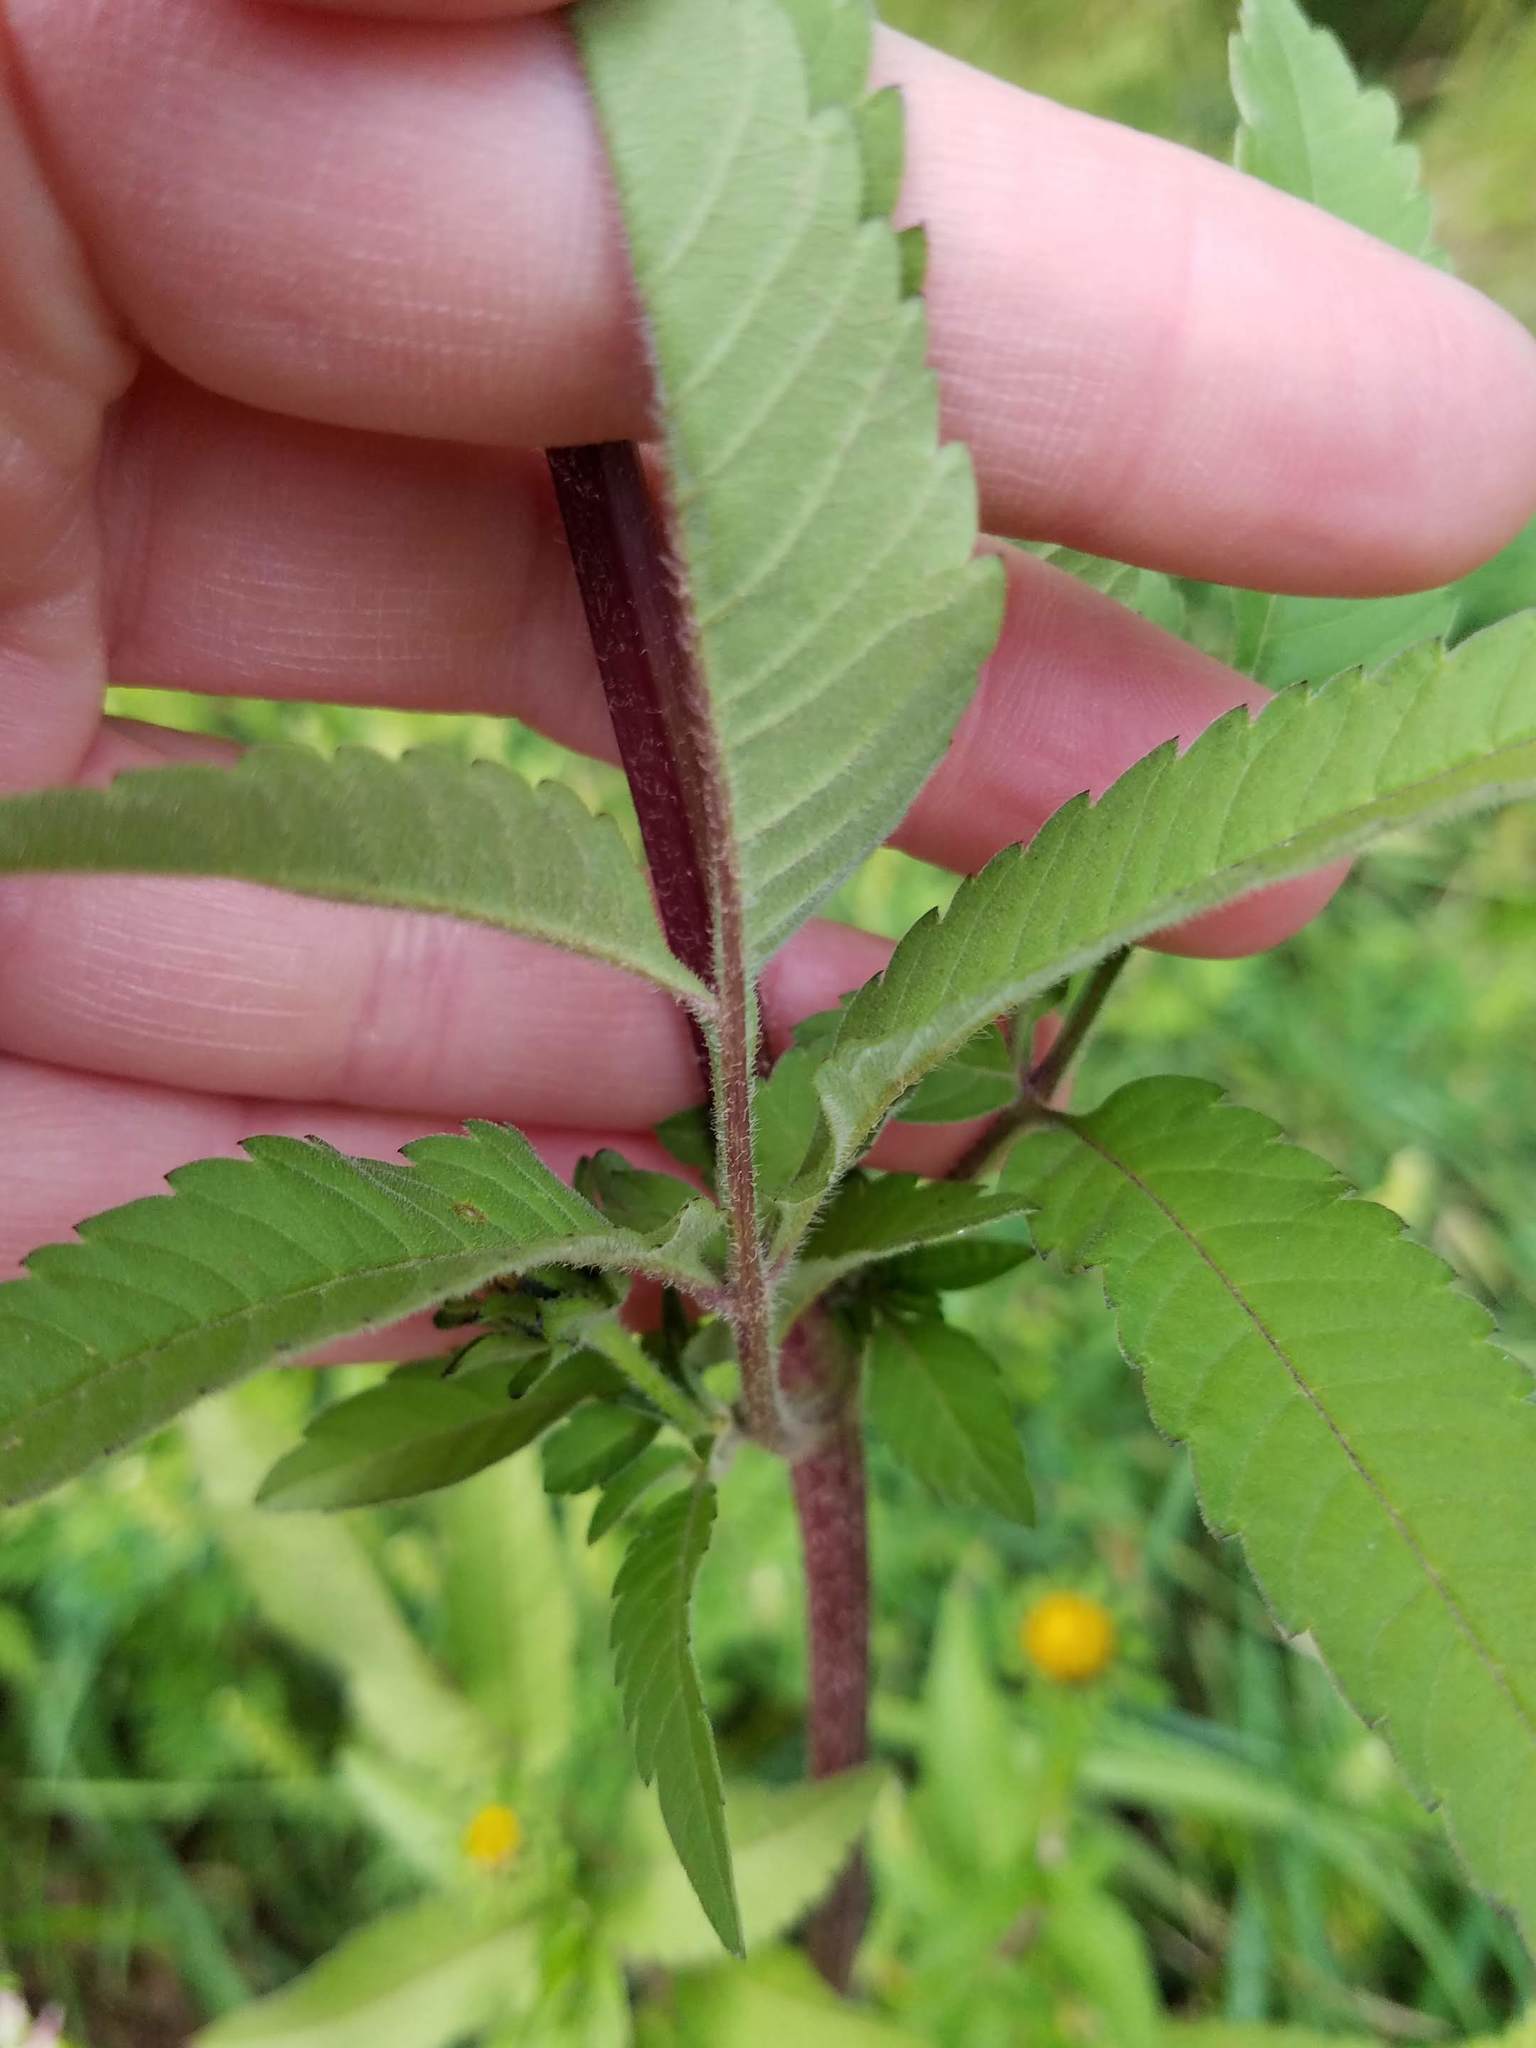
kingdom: Plantae
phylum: Tracheophyta
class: Magnoliopsida
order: Asterales
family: Asteraceae
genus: Bidens
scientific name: Bidens vulgata
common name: Tall beggarticks
